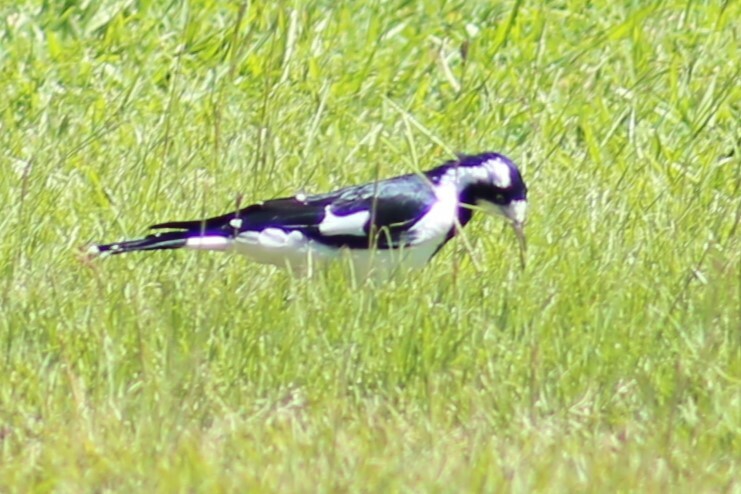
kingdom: Animalia
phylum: Chordata
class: Aves
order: Passeriformes
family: Monarchidae
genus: Grallina
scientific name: Grallina cyanoleuca
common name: Magpie-lark
